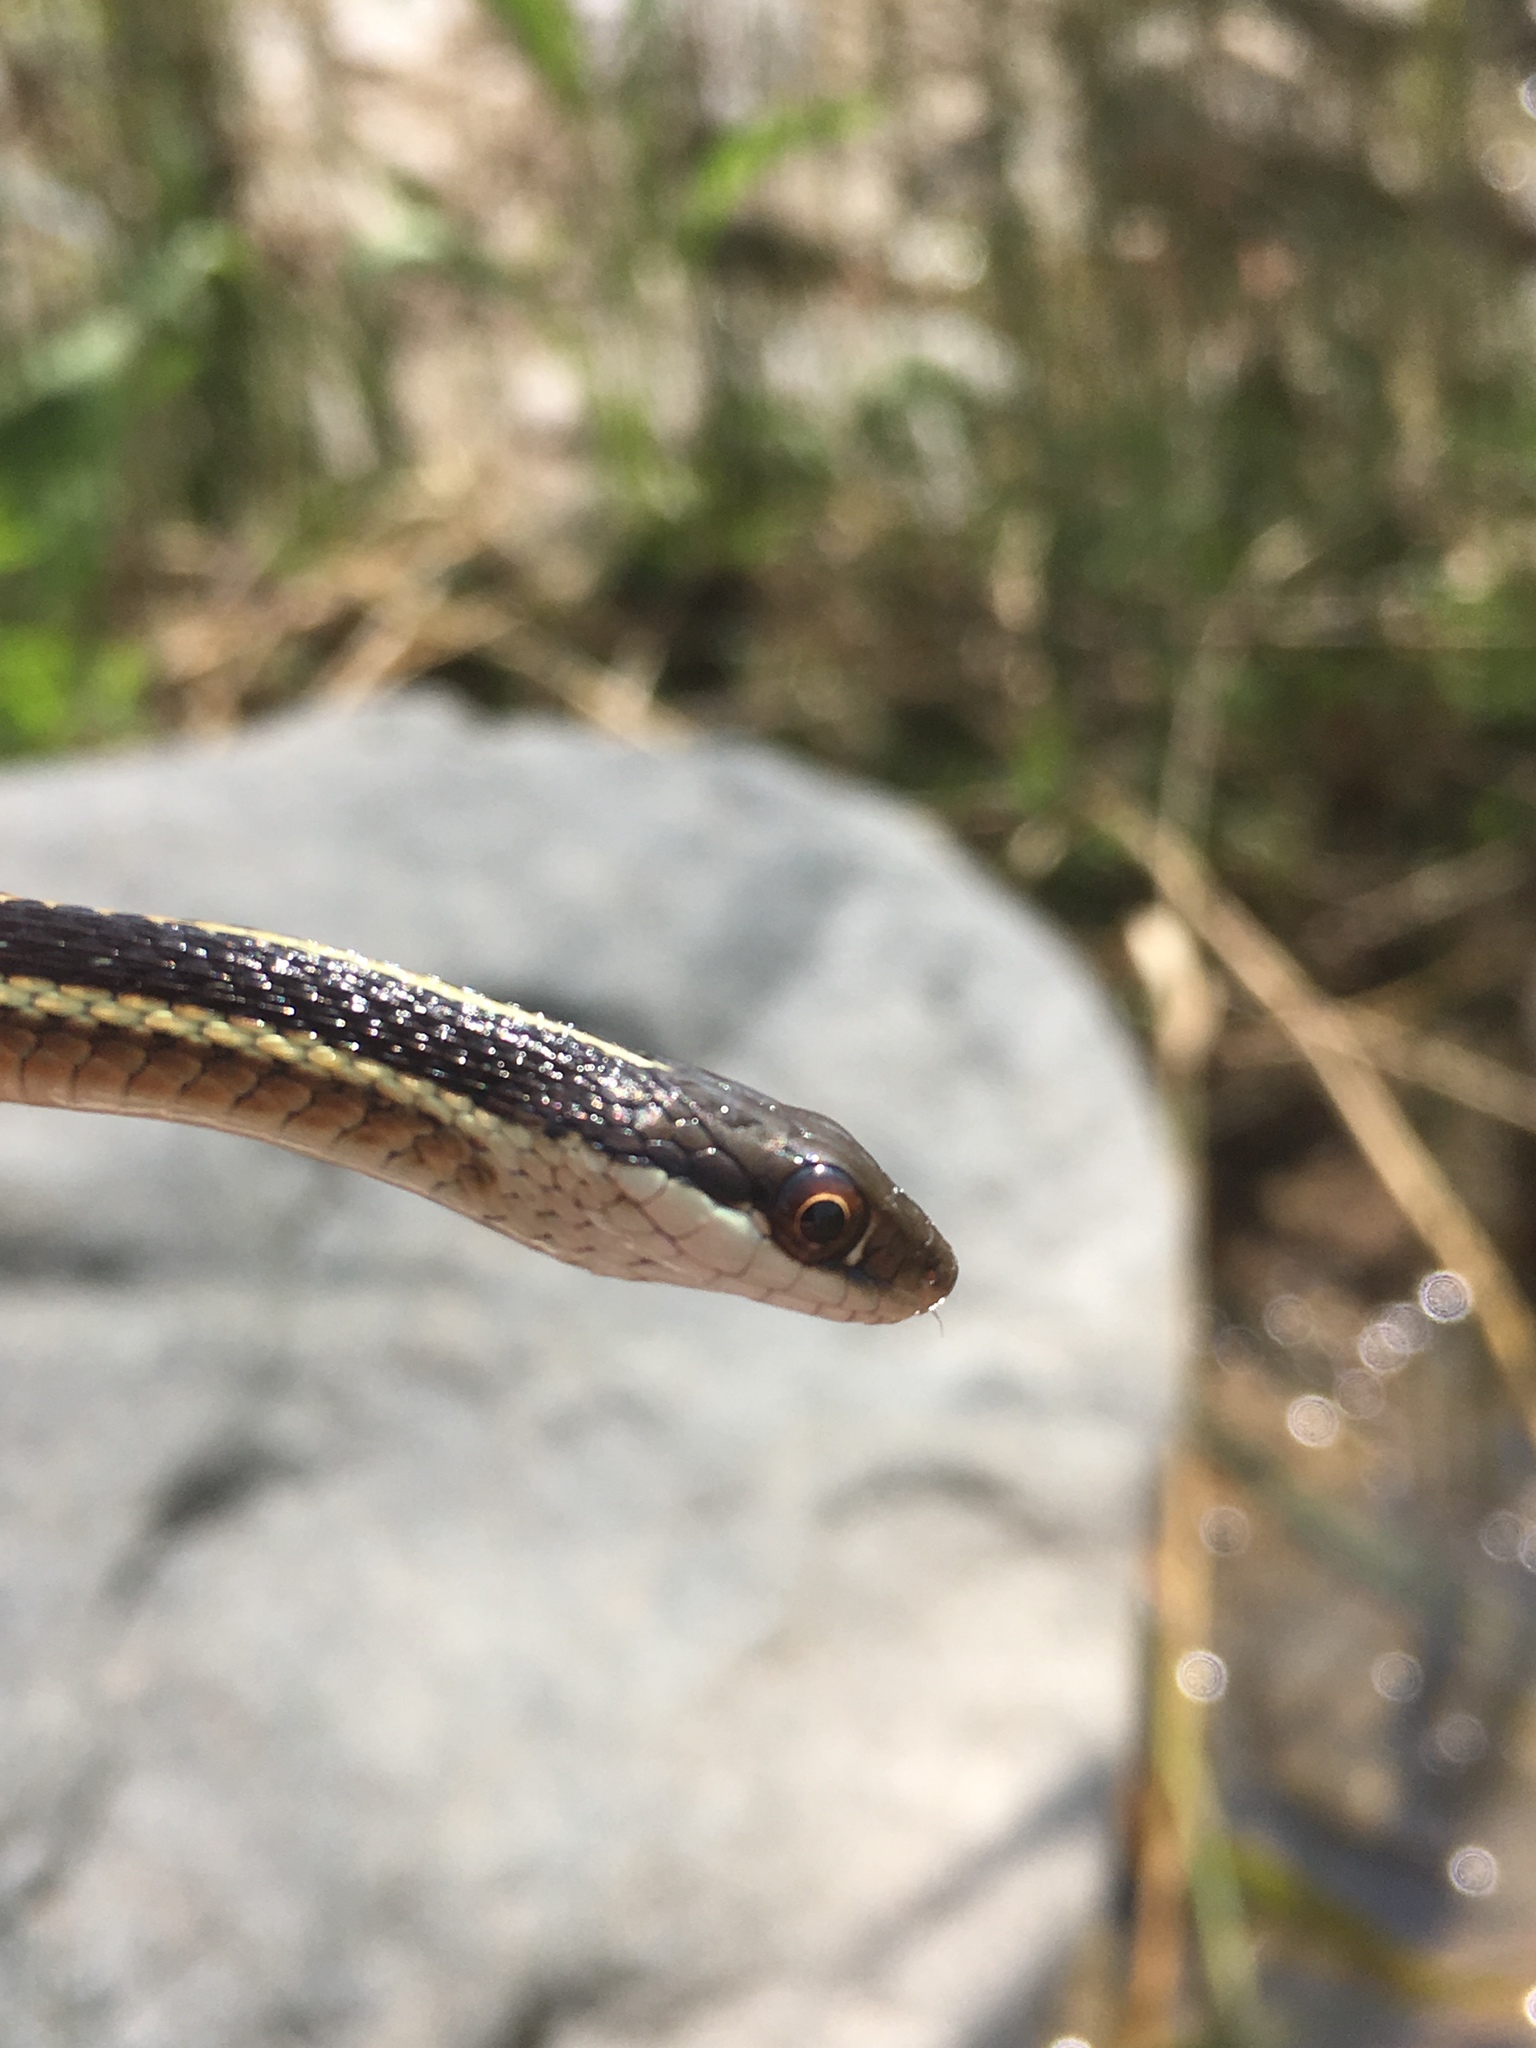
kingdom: Animalia
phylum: Chordata
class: Squamata
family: Colubridae
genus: Thamnophis
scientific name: Thamnophis saurita
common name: Eastern ribbonsnake
